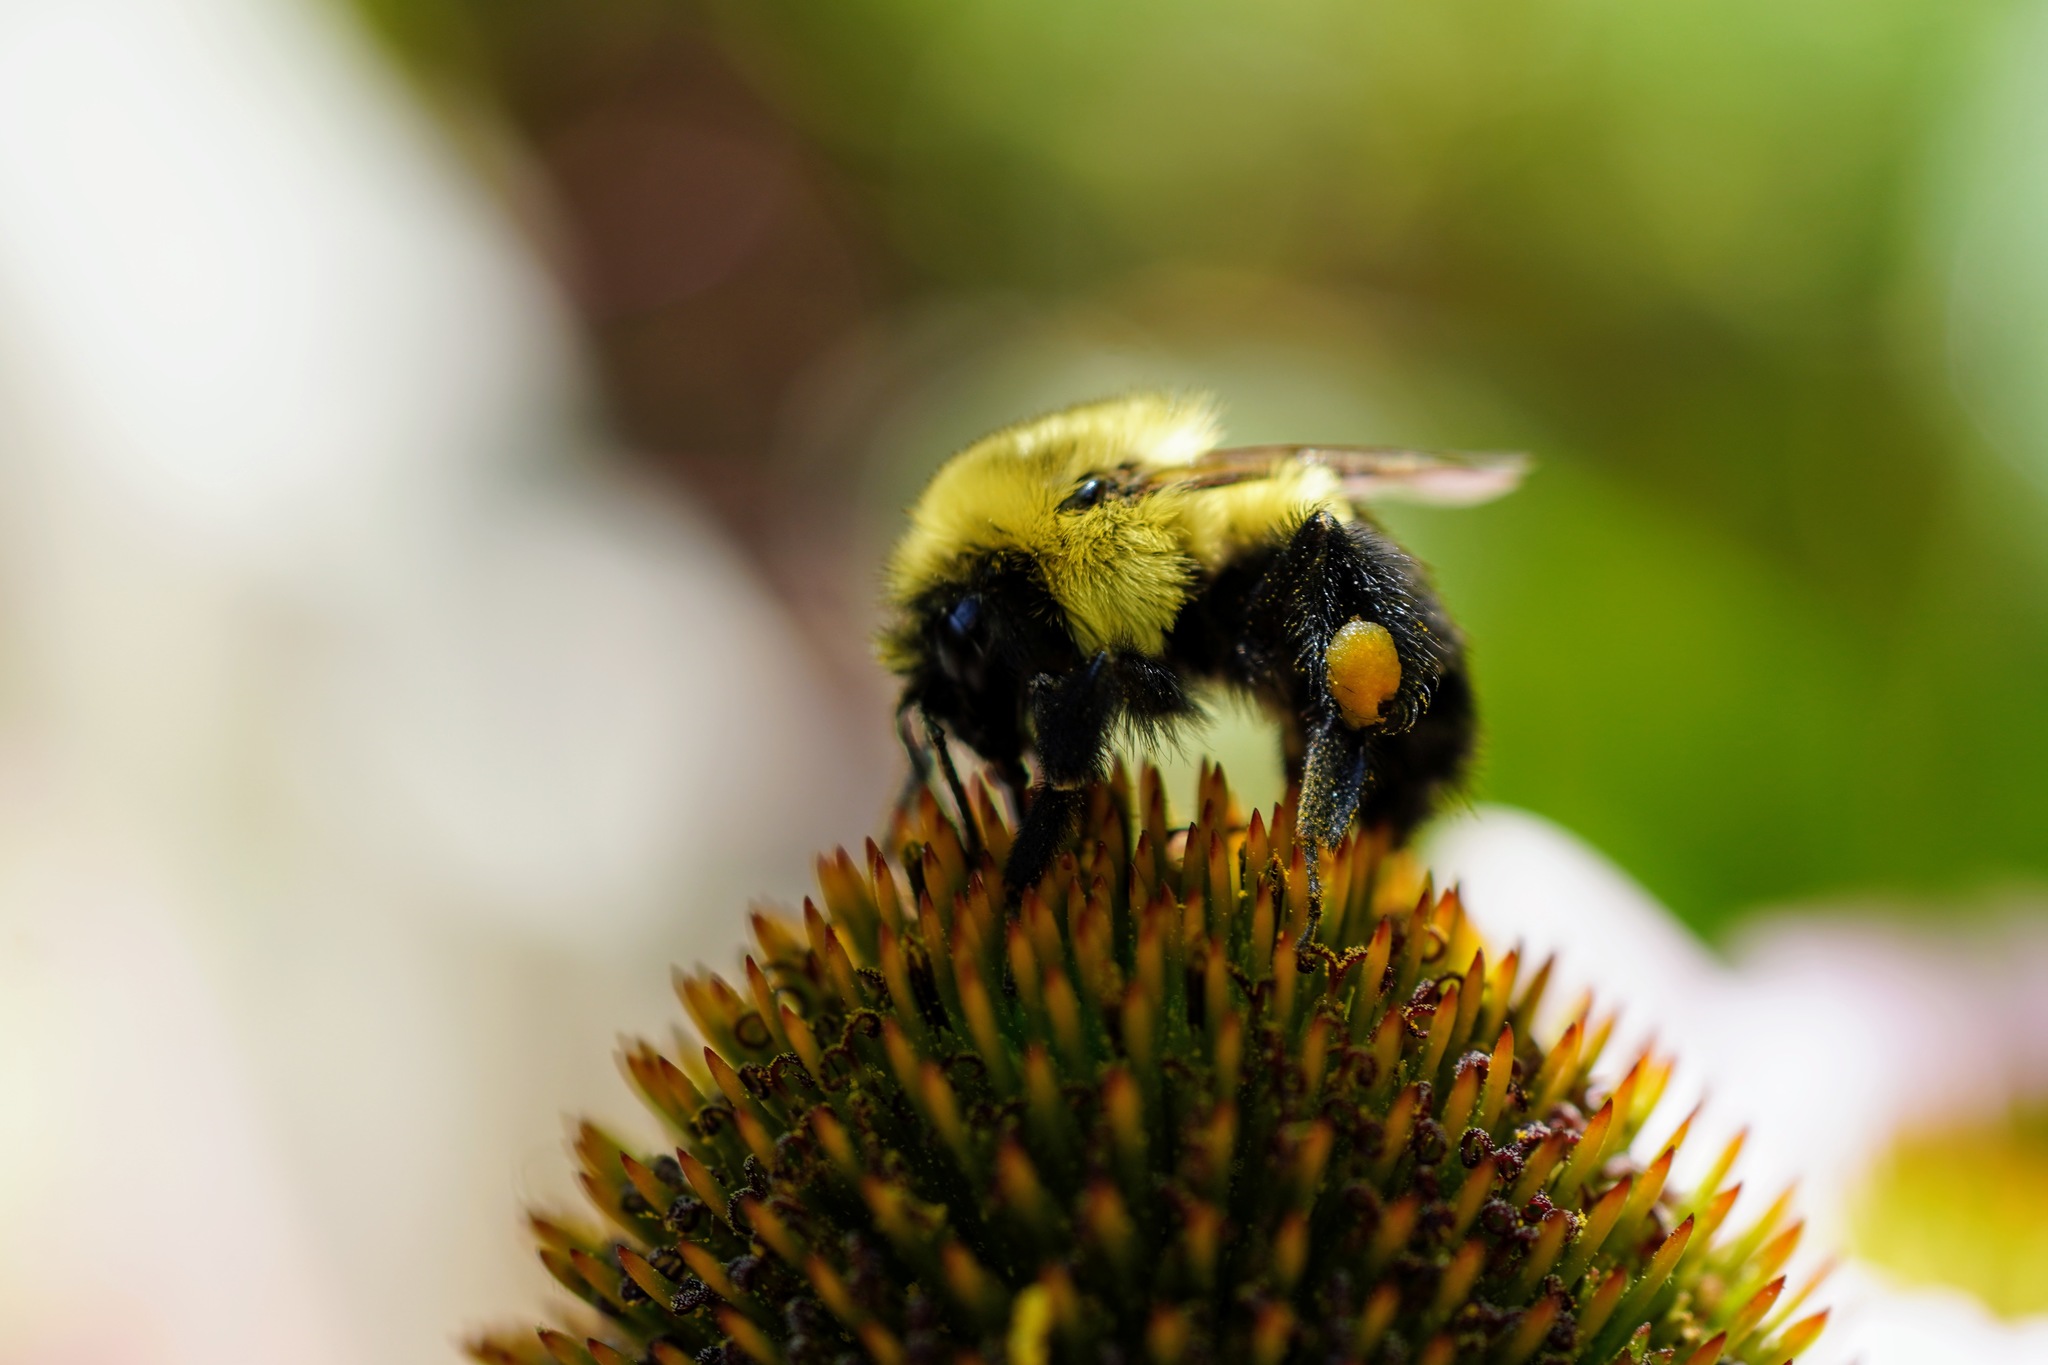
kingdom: Animalia
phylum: Arthropoda
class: Insecta
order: Hymenoptera
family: Apidae
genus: Bombus
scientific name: Bombus impatiens
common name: Common eastern bumble bee
